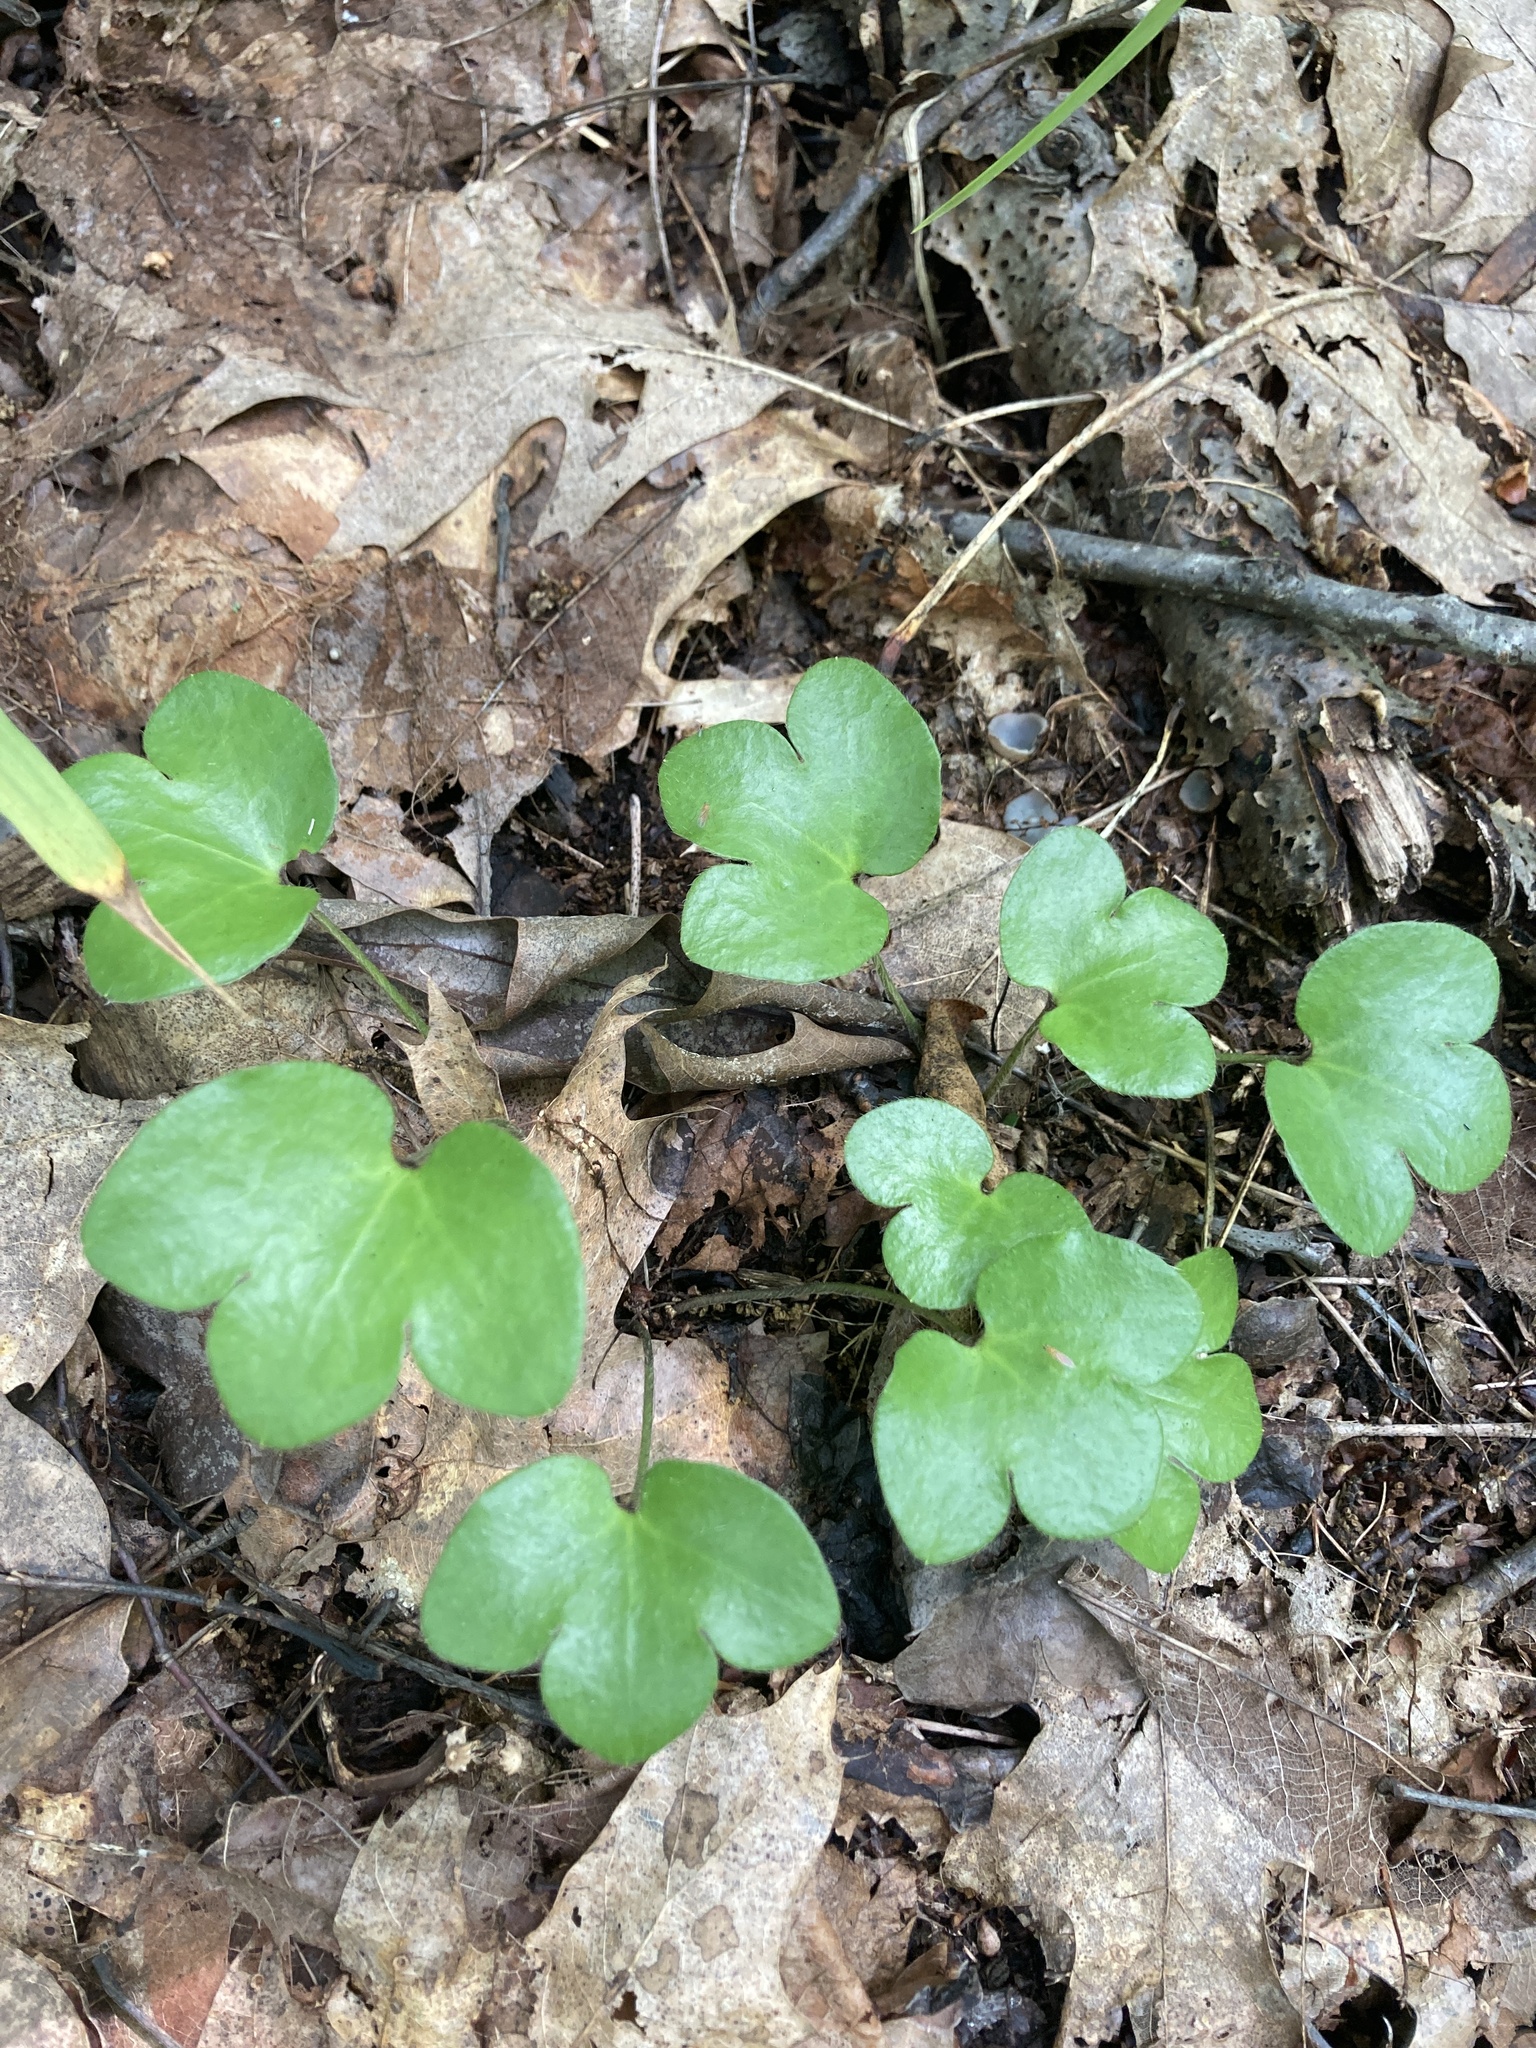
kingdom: Plantae
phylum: Tracheophyta
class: Magnoliopsida
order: Ranunculales
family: Ranunculaceae
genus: Hepatica
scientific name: Hepatica americana
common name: American hepatica
